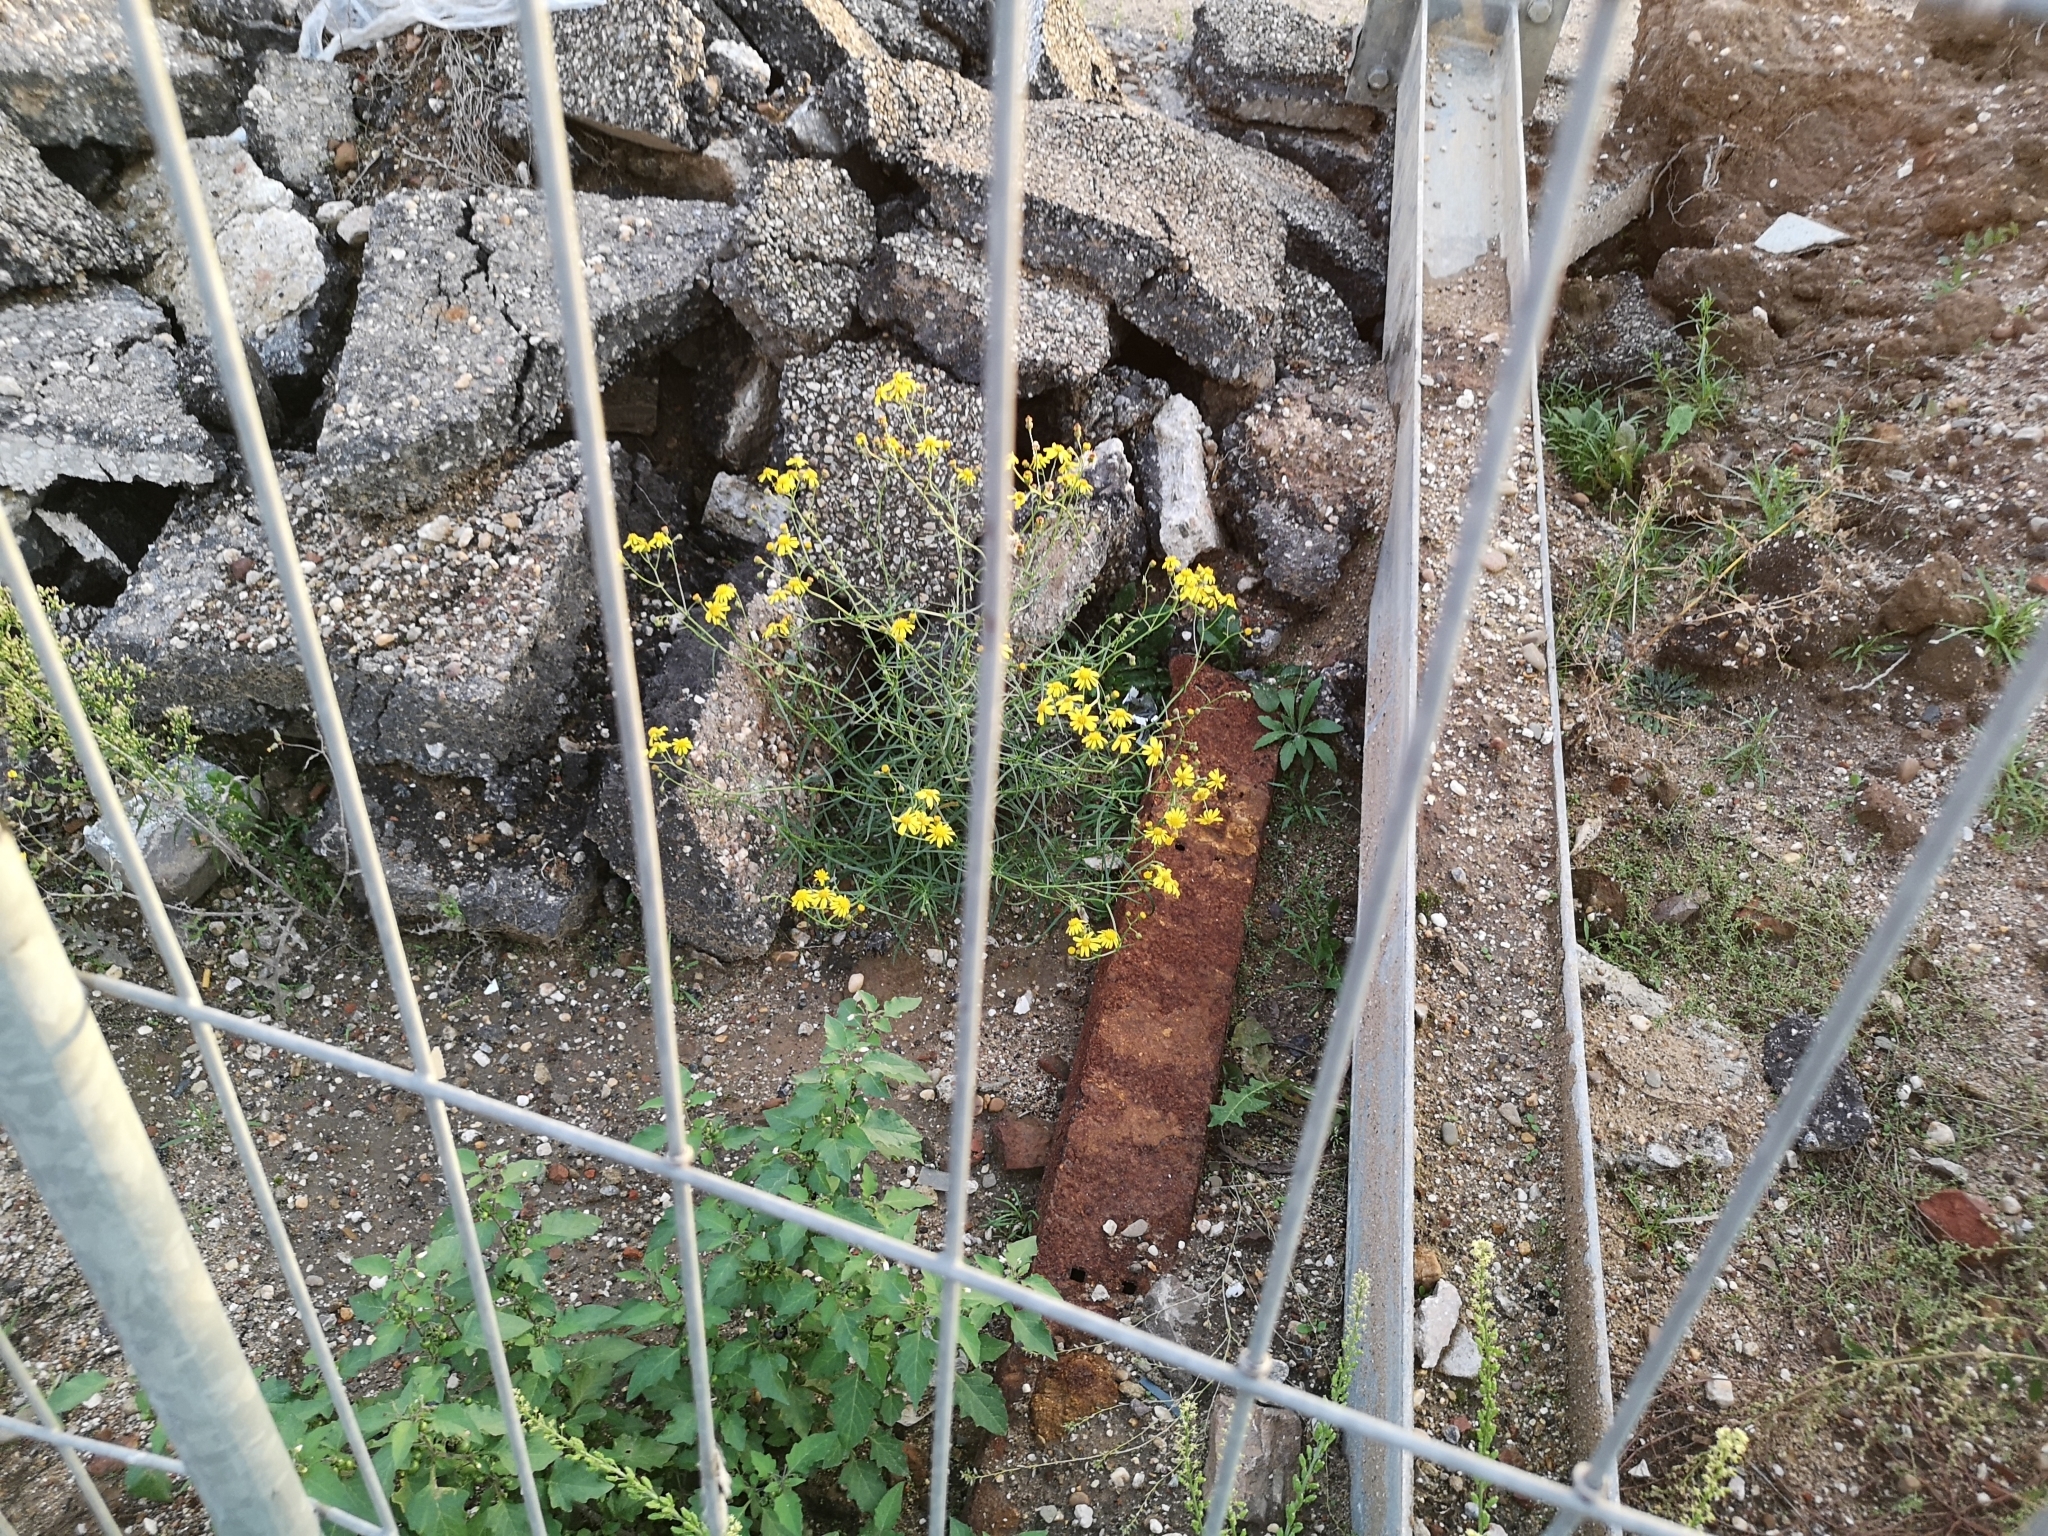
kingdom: Plantae
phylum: Tracheophyta
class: Magnoliopsida
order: Asterales
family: Asteraceae
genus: Senecio
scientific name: Senecio inaequidens
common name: Narrow-leaved ragwort
